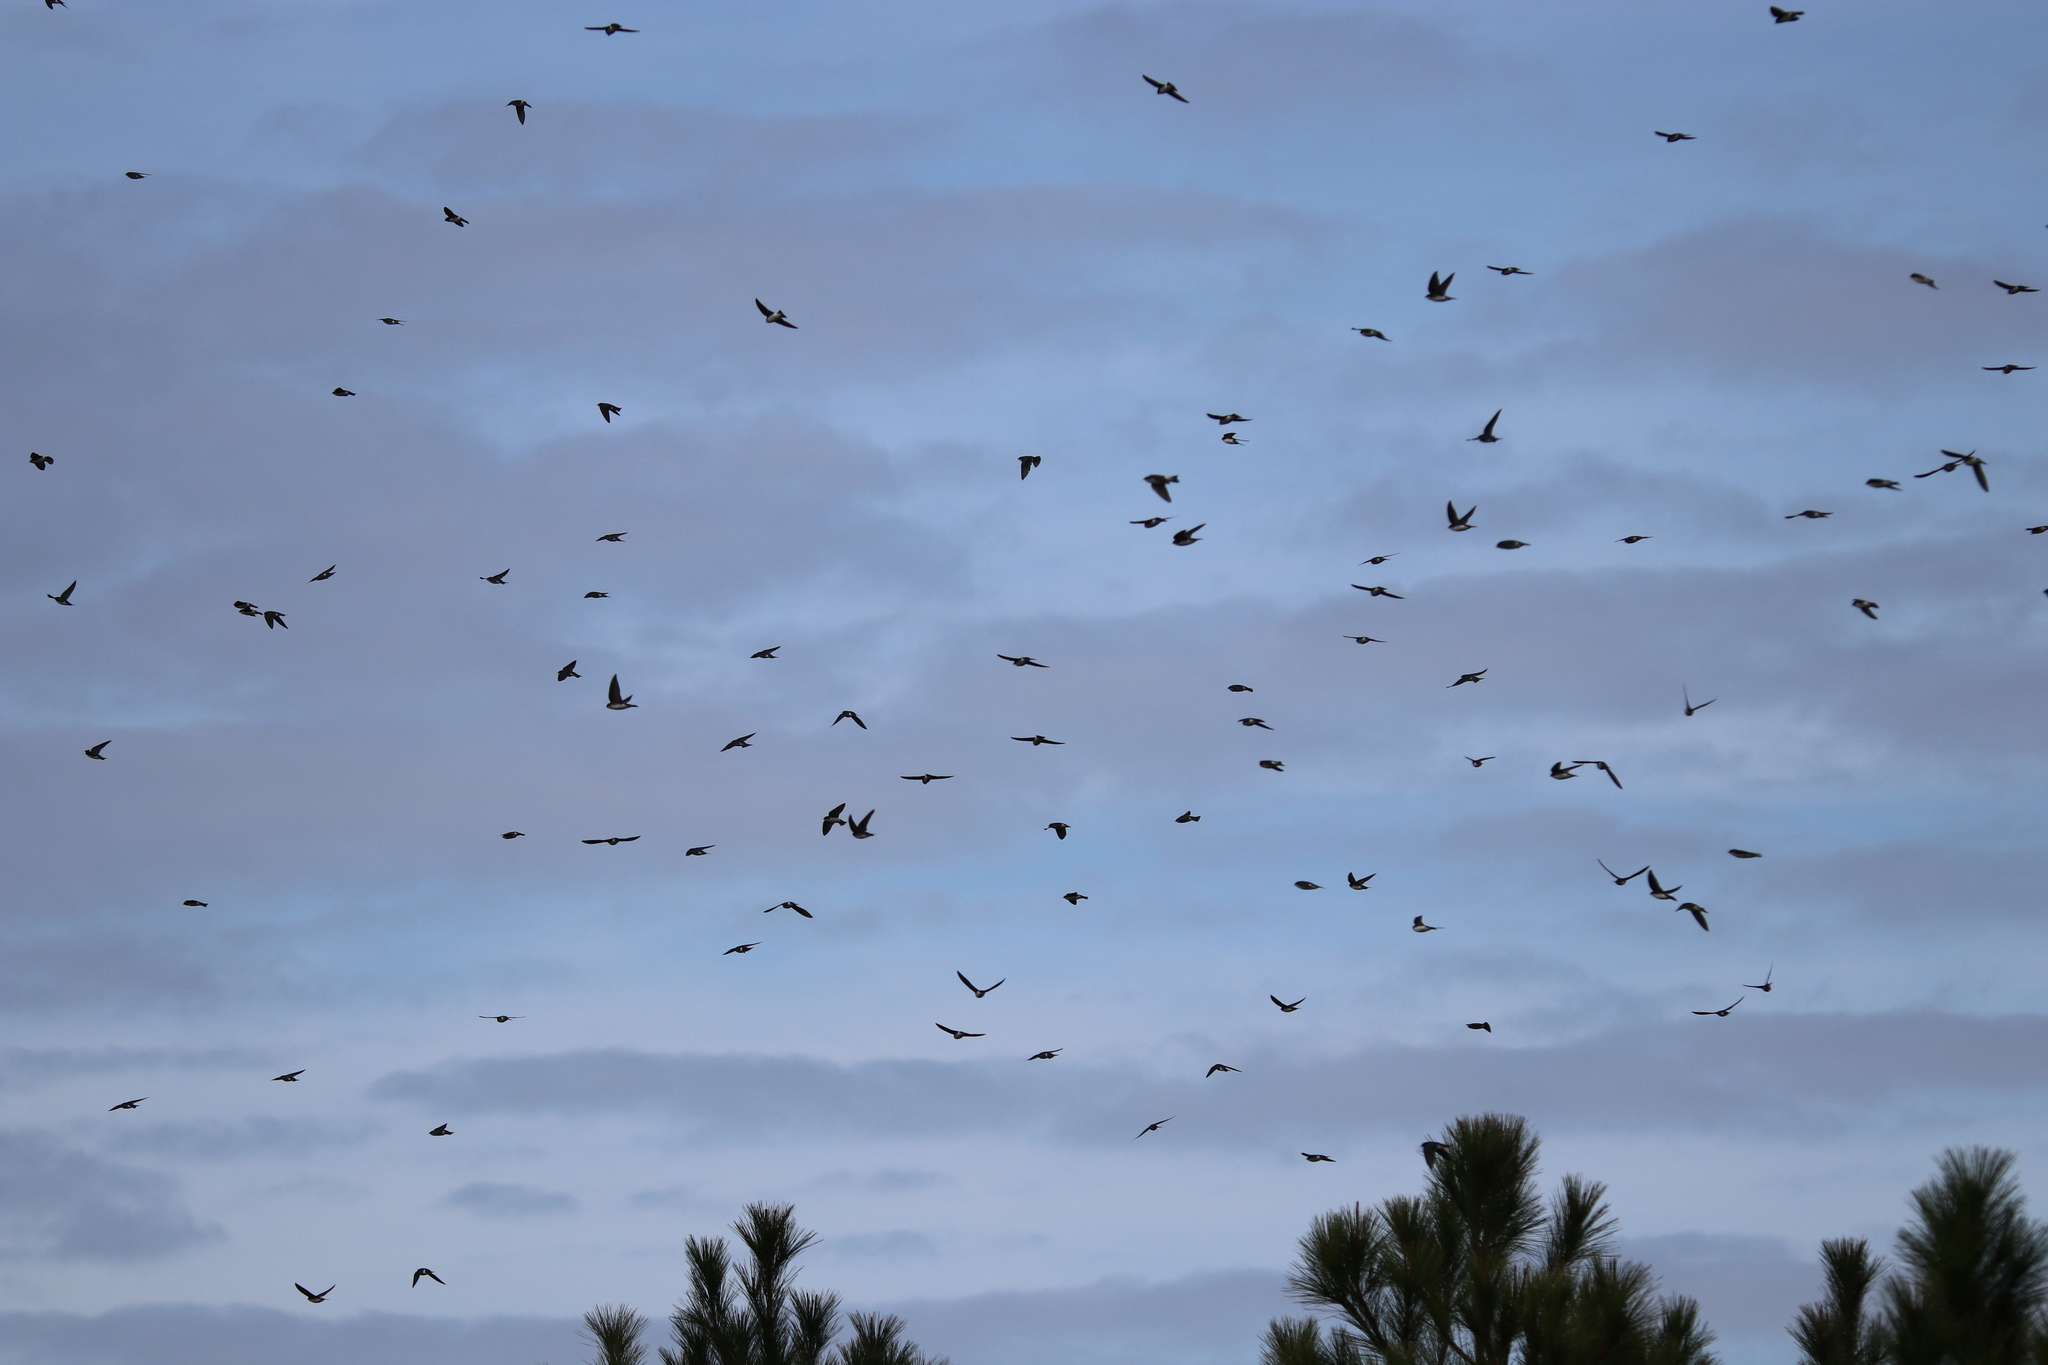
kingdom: Animalia
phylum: Chordata
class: Aves
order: Passeriformes
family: Hirundinidae
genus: Tachycineta
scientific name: Tachycineta bicolor
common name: Tree swallow
